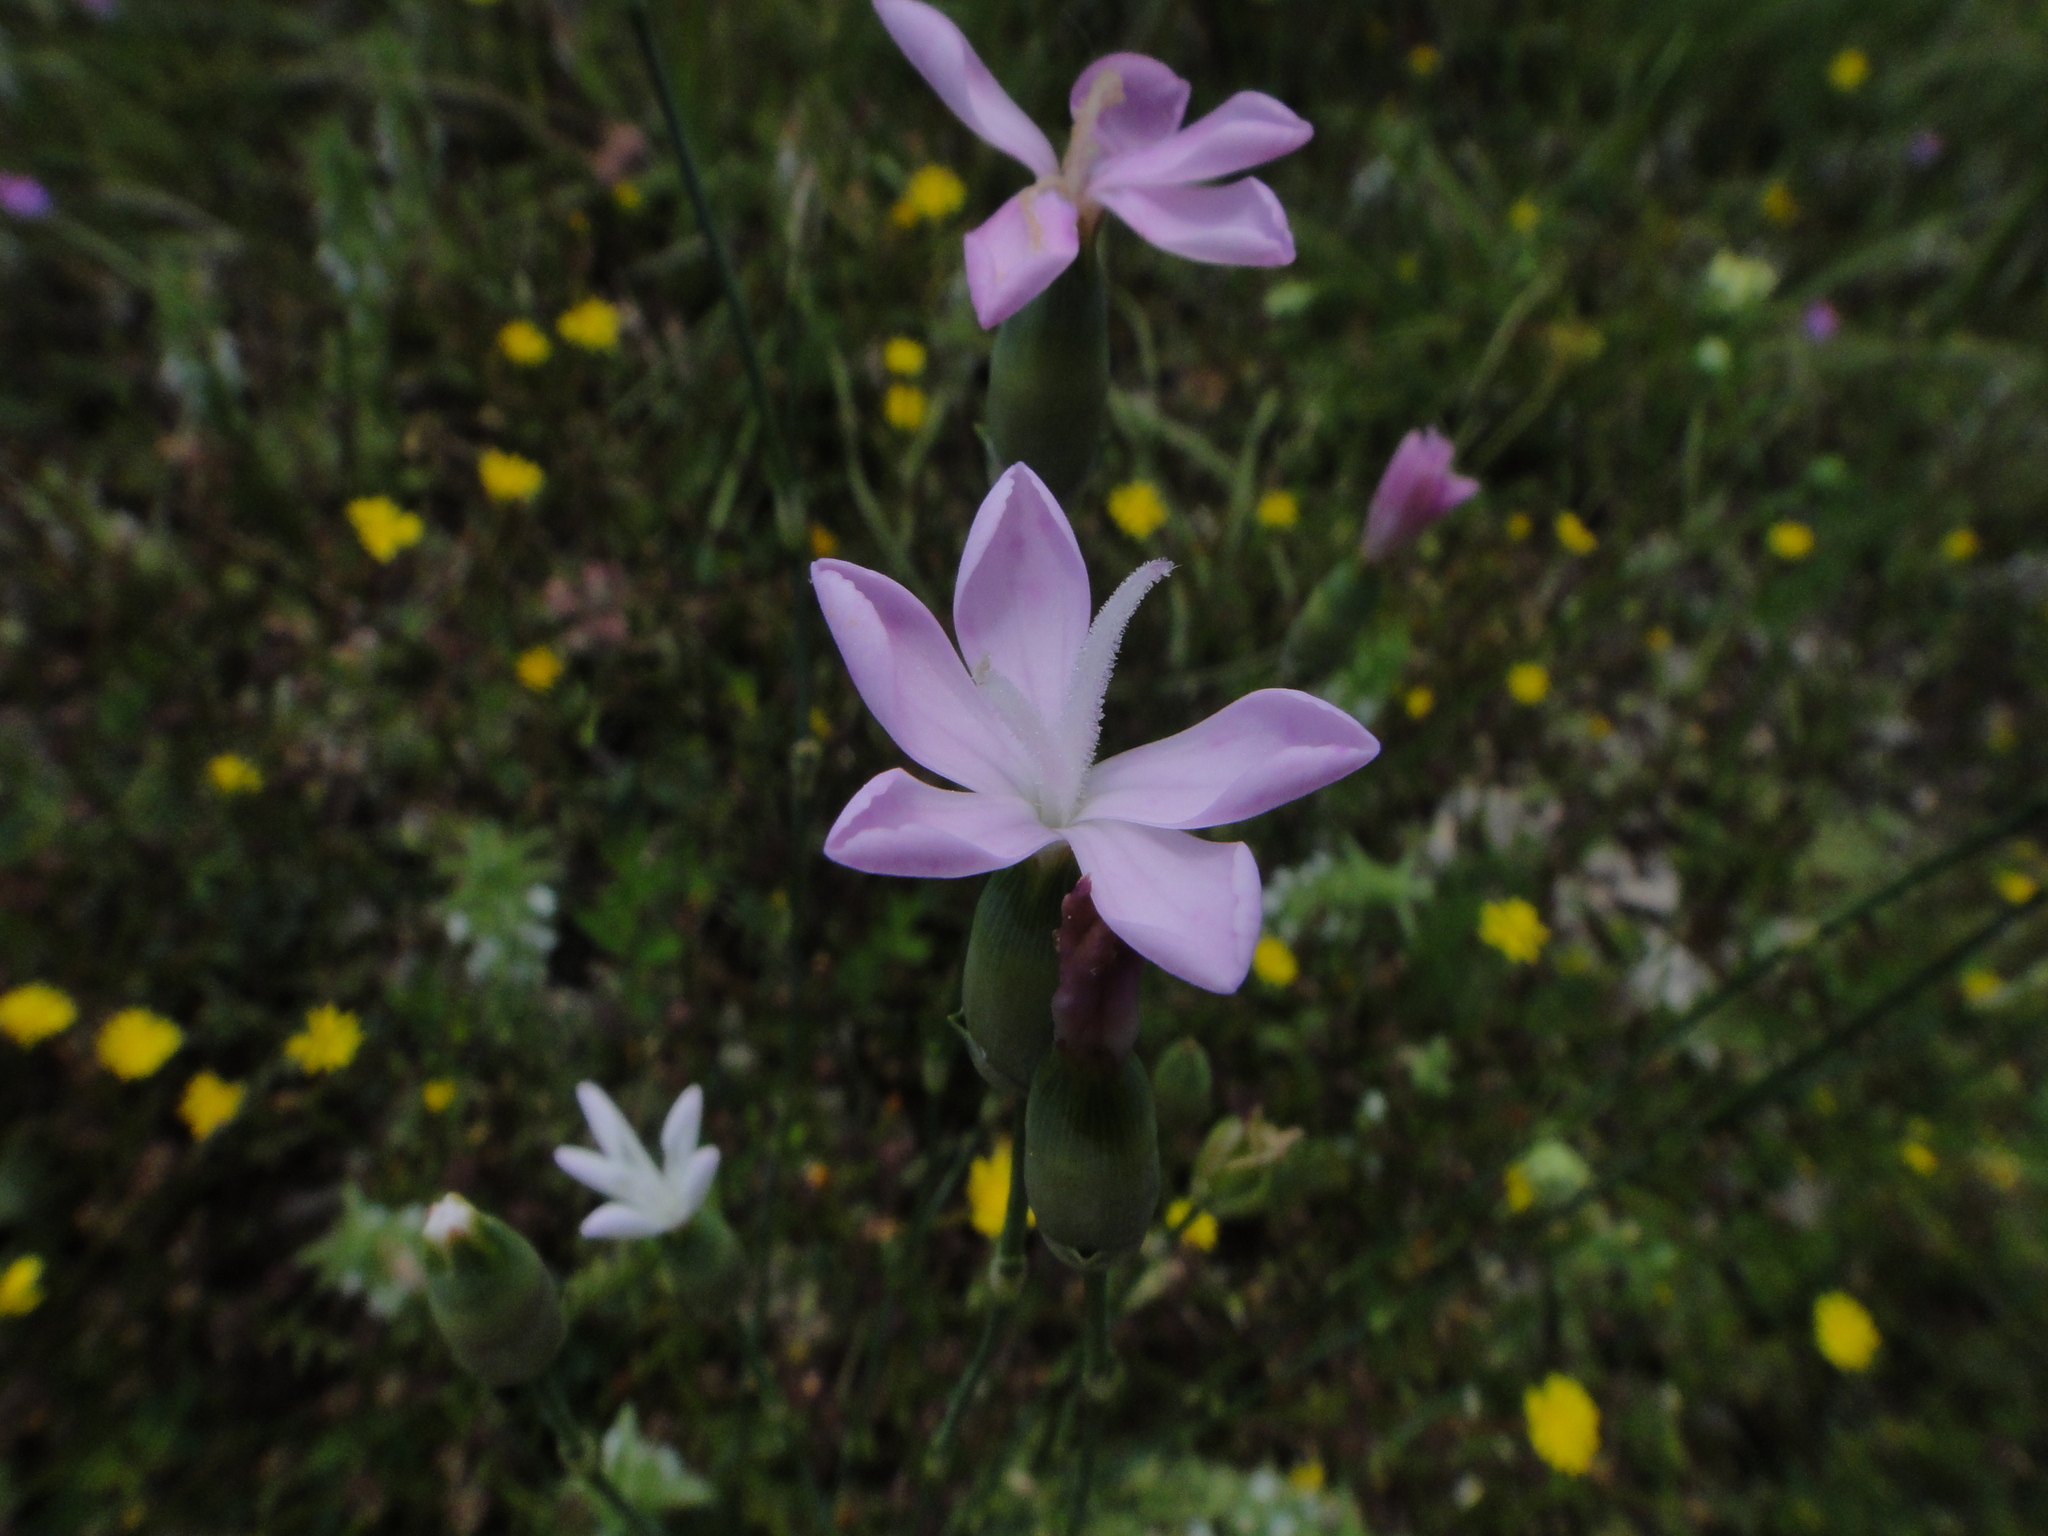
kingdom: Plantae
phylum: Tracheophyta
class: Magnoliopsida
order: Caryophyllales
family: Caryophyllaceae
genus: Dianthus
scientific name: Dianthus sylvestris
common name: Wood pink
